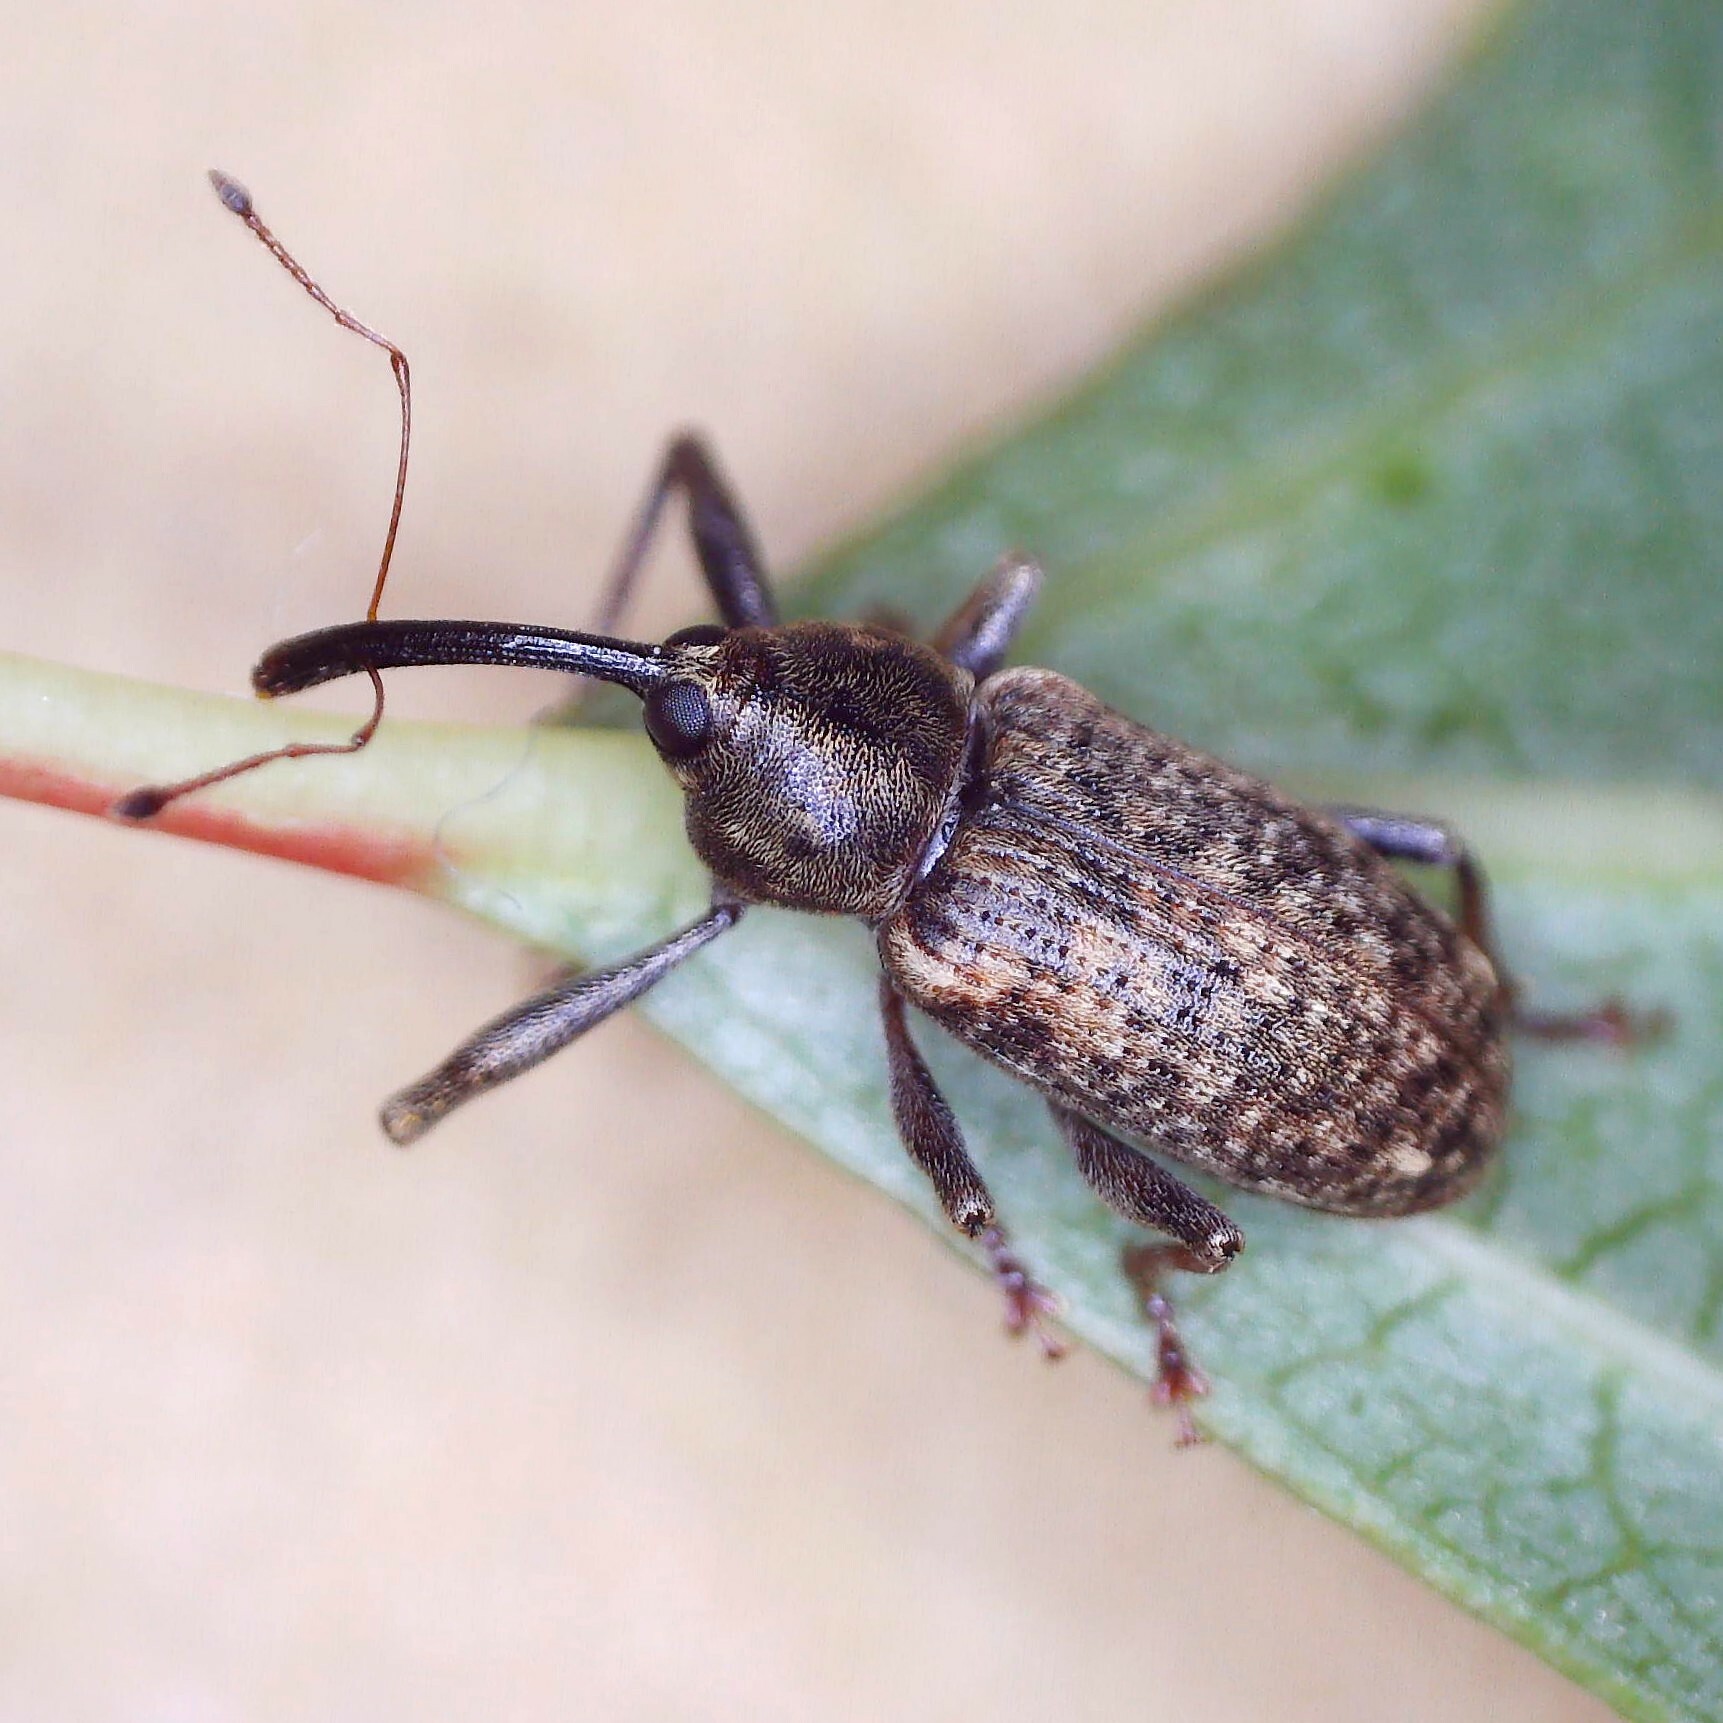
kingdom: Animalia
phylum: Arthropoda
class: Insecta
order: Coleoptera
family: Curculionidae
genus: Dorytomus
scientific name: Dorytomus longimanus
